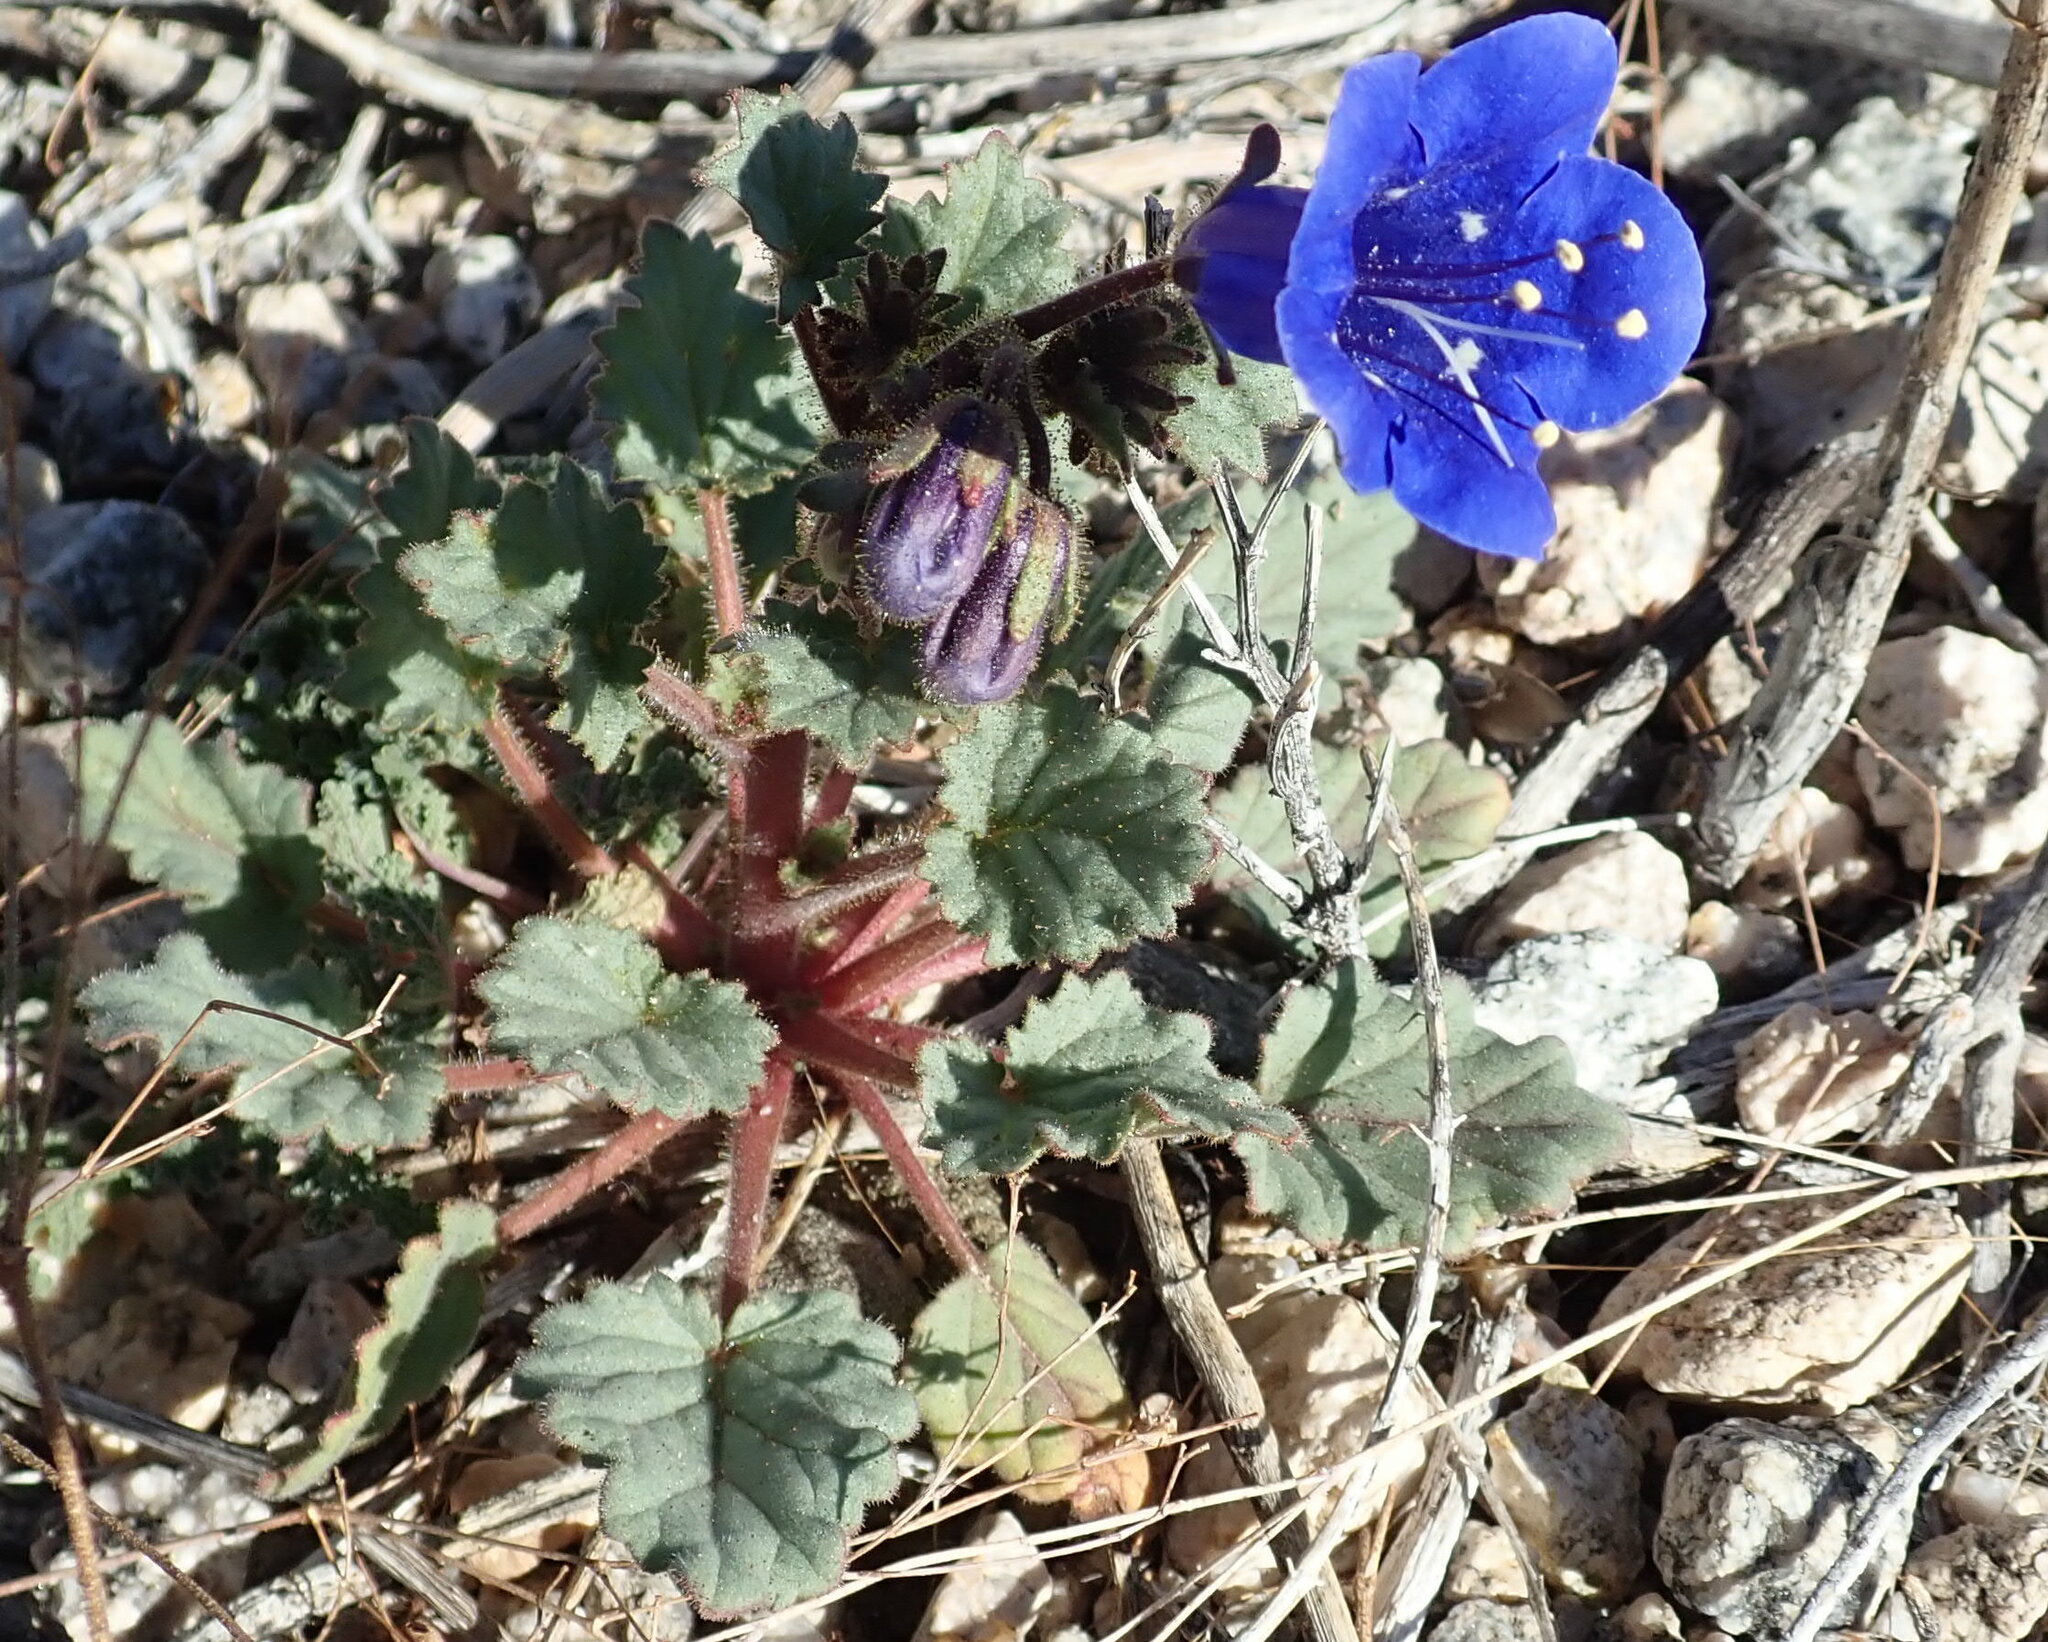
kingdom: Plantae
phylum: Tracheophyta
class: Magnoliopsida
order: Boraginales
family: Hydrophyllaceae
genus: Phacelia
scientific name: Phacelia campanularia
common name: California bluebell
